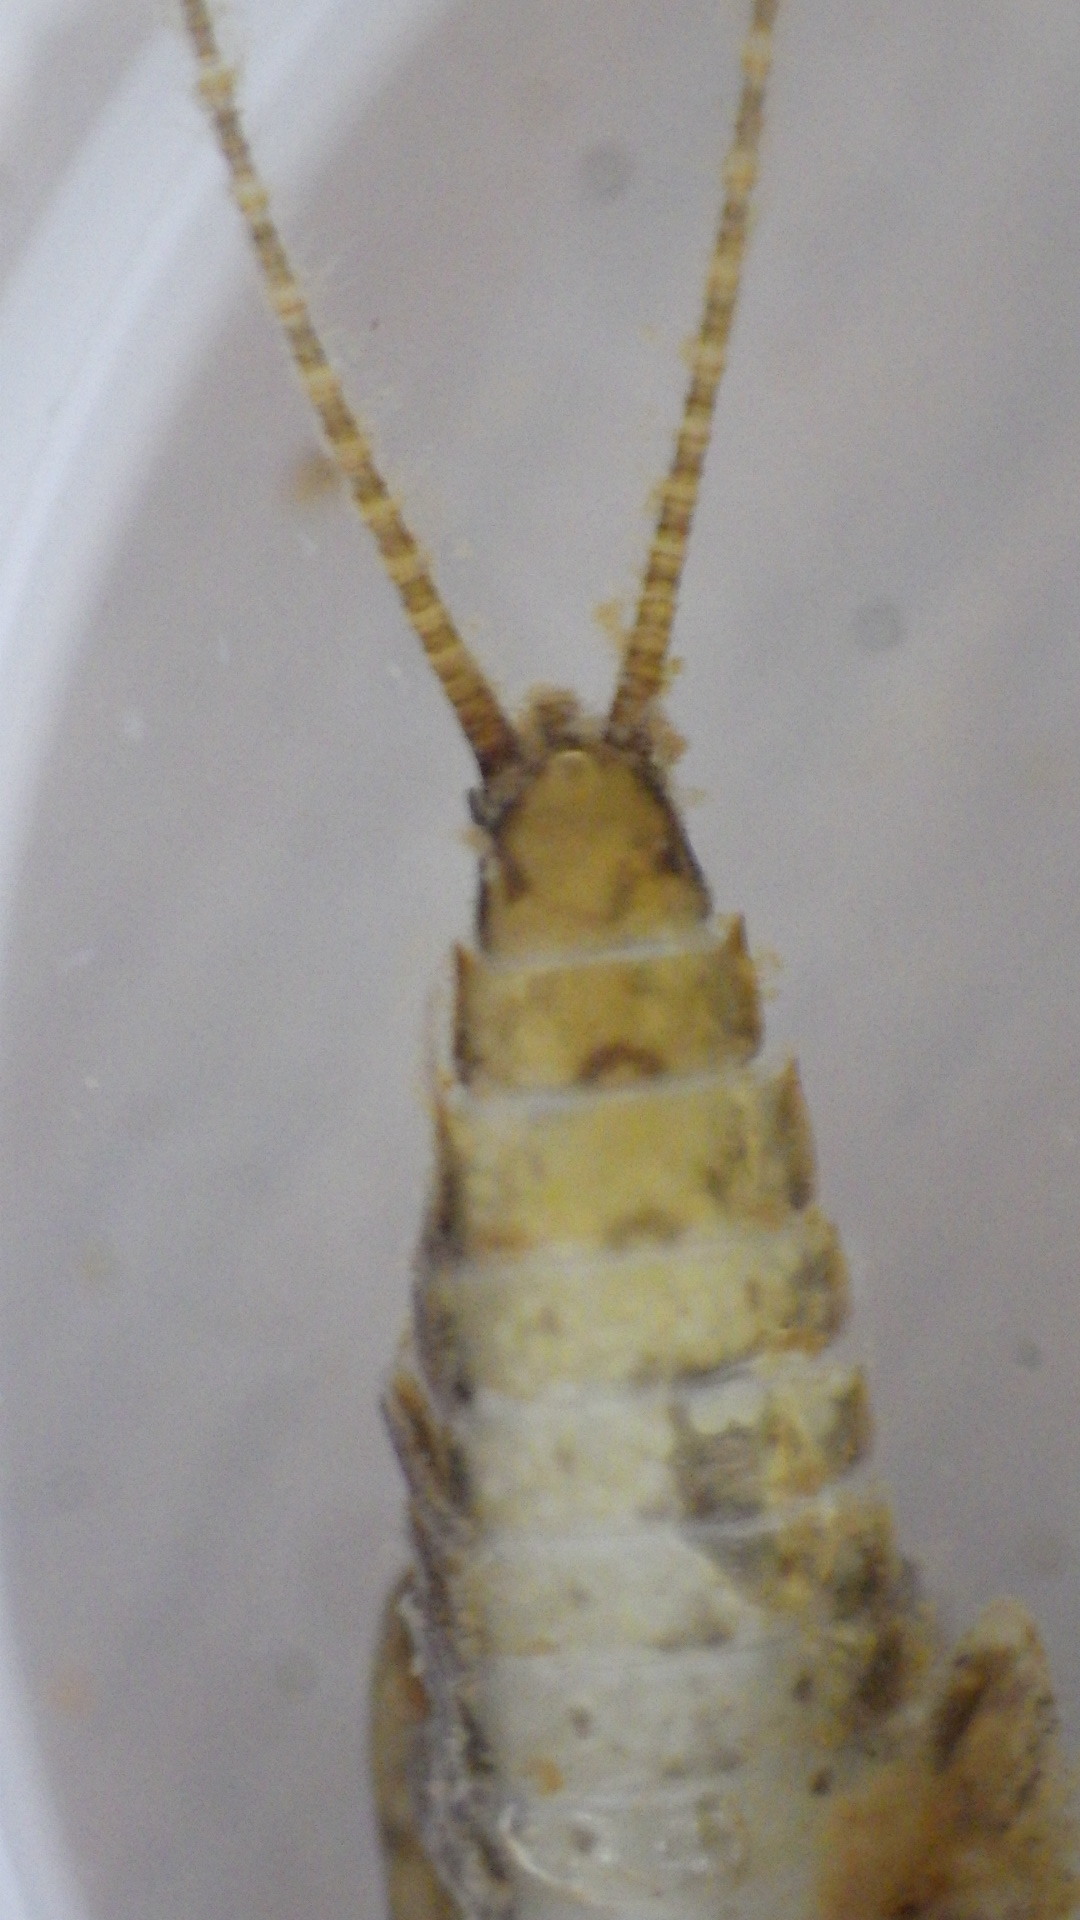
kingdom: Animalia
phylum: Arthropoda
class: Insecta
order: Ephemeroptera
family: Heptageniidae
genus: Maccaffertium
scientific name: Maccaffertium terminatum
